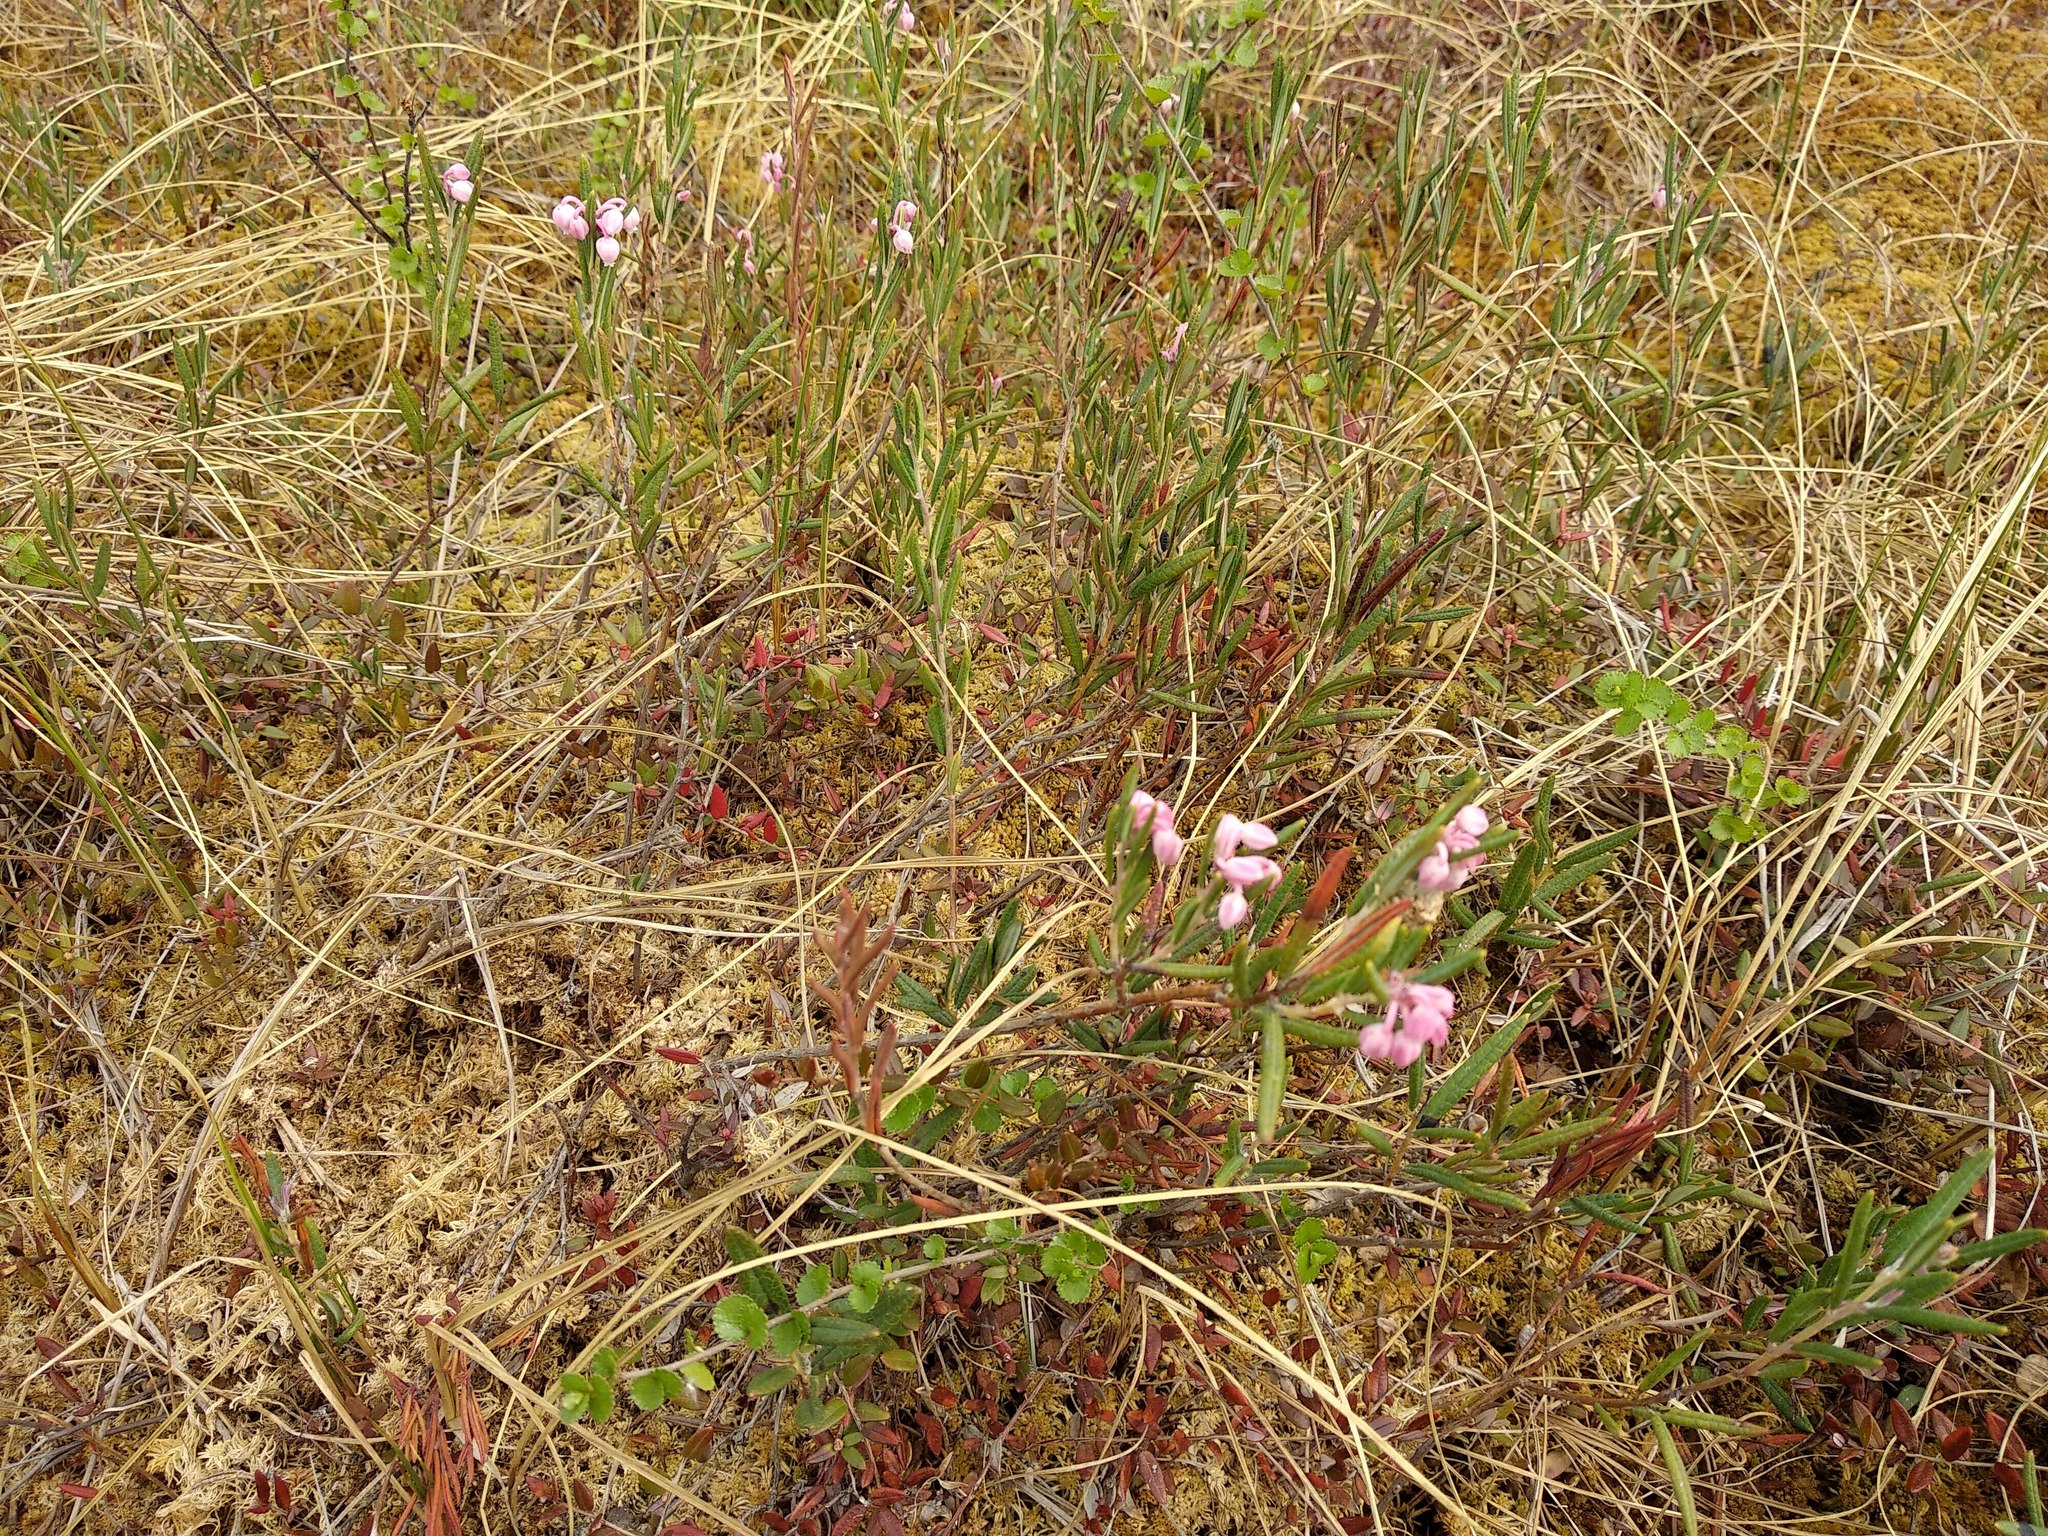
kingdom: Plantae
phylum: Tracheophyta
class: Magnoliopsida
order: Ericales
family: Ericaceae
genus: Andromeda
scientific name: Andromeda polifolia
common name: Bog-rosemary
